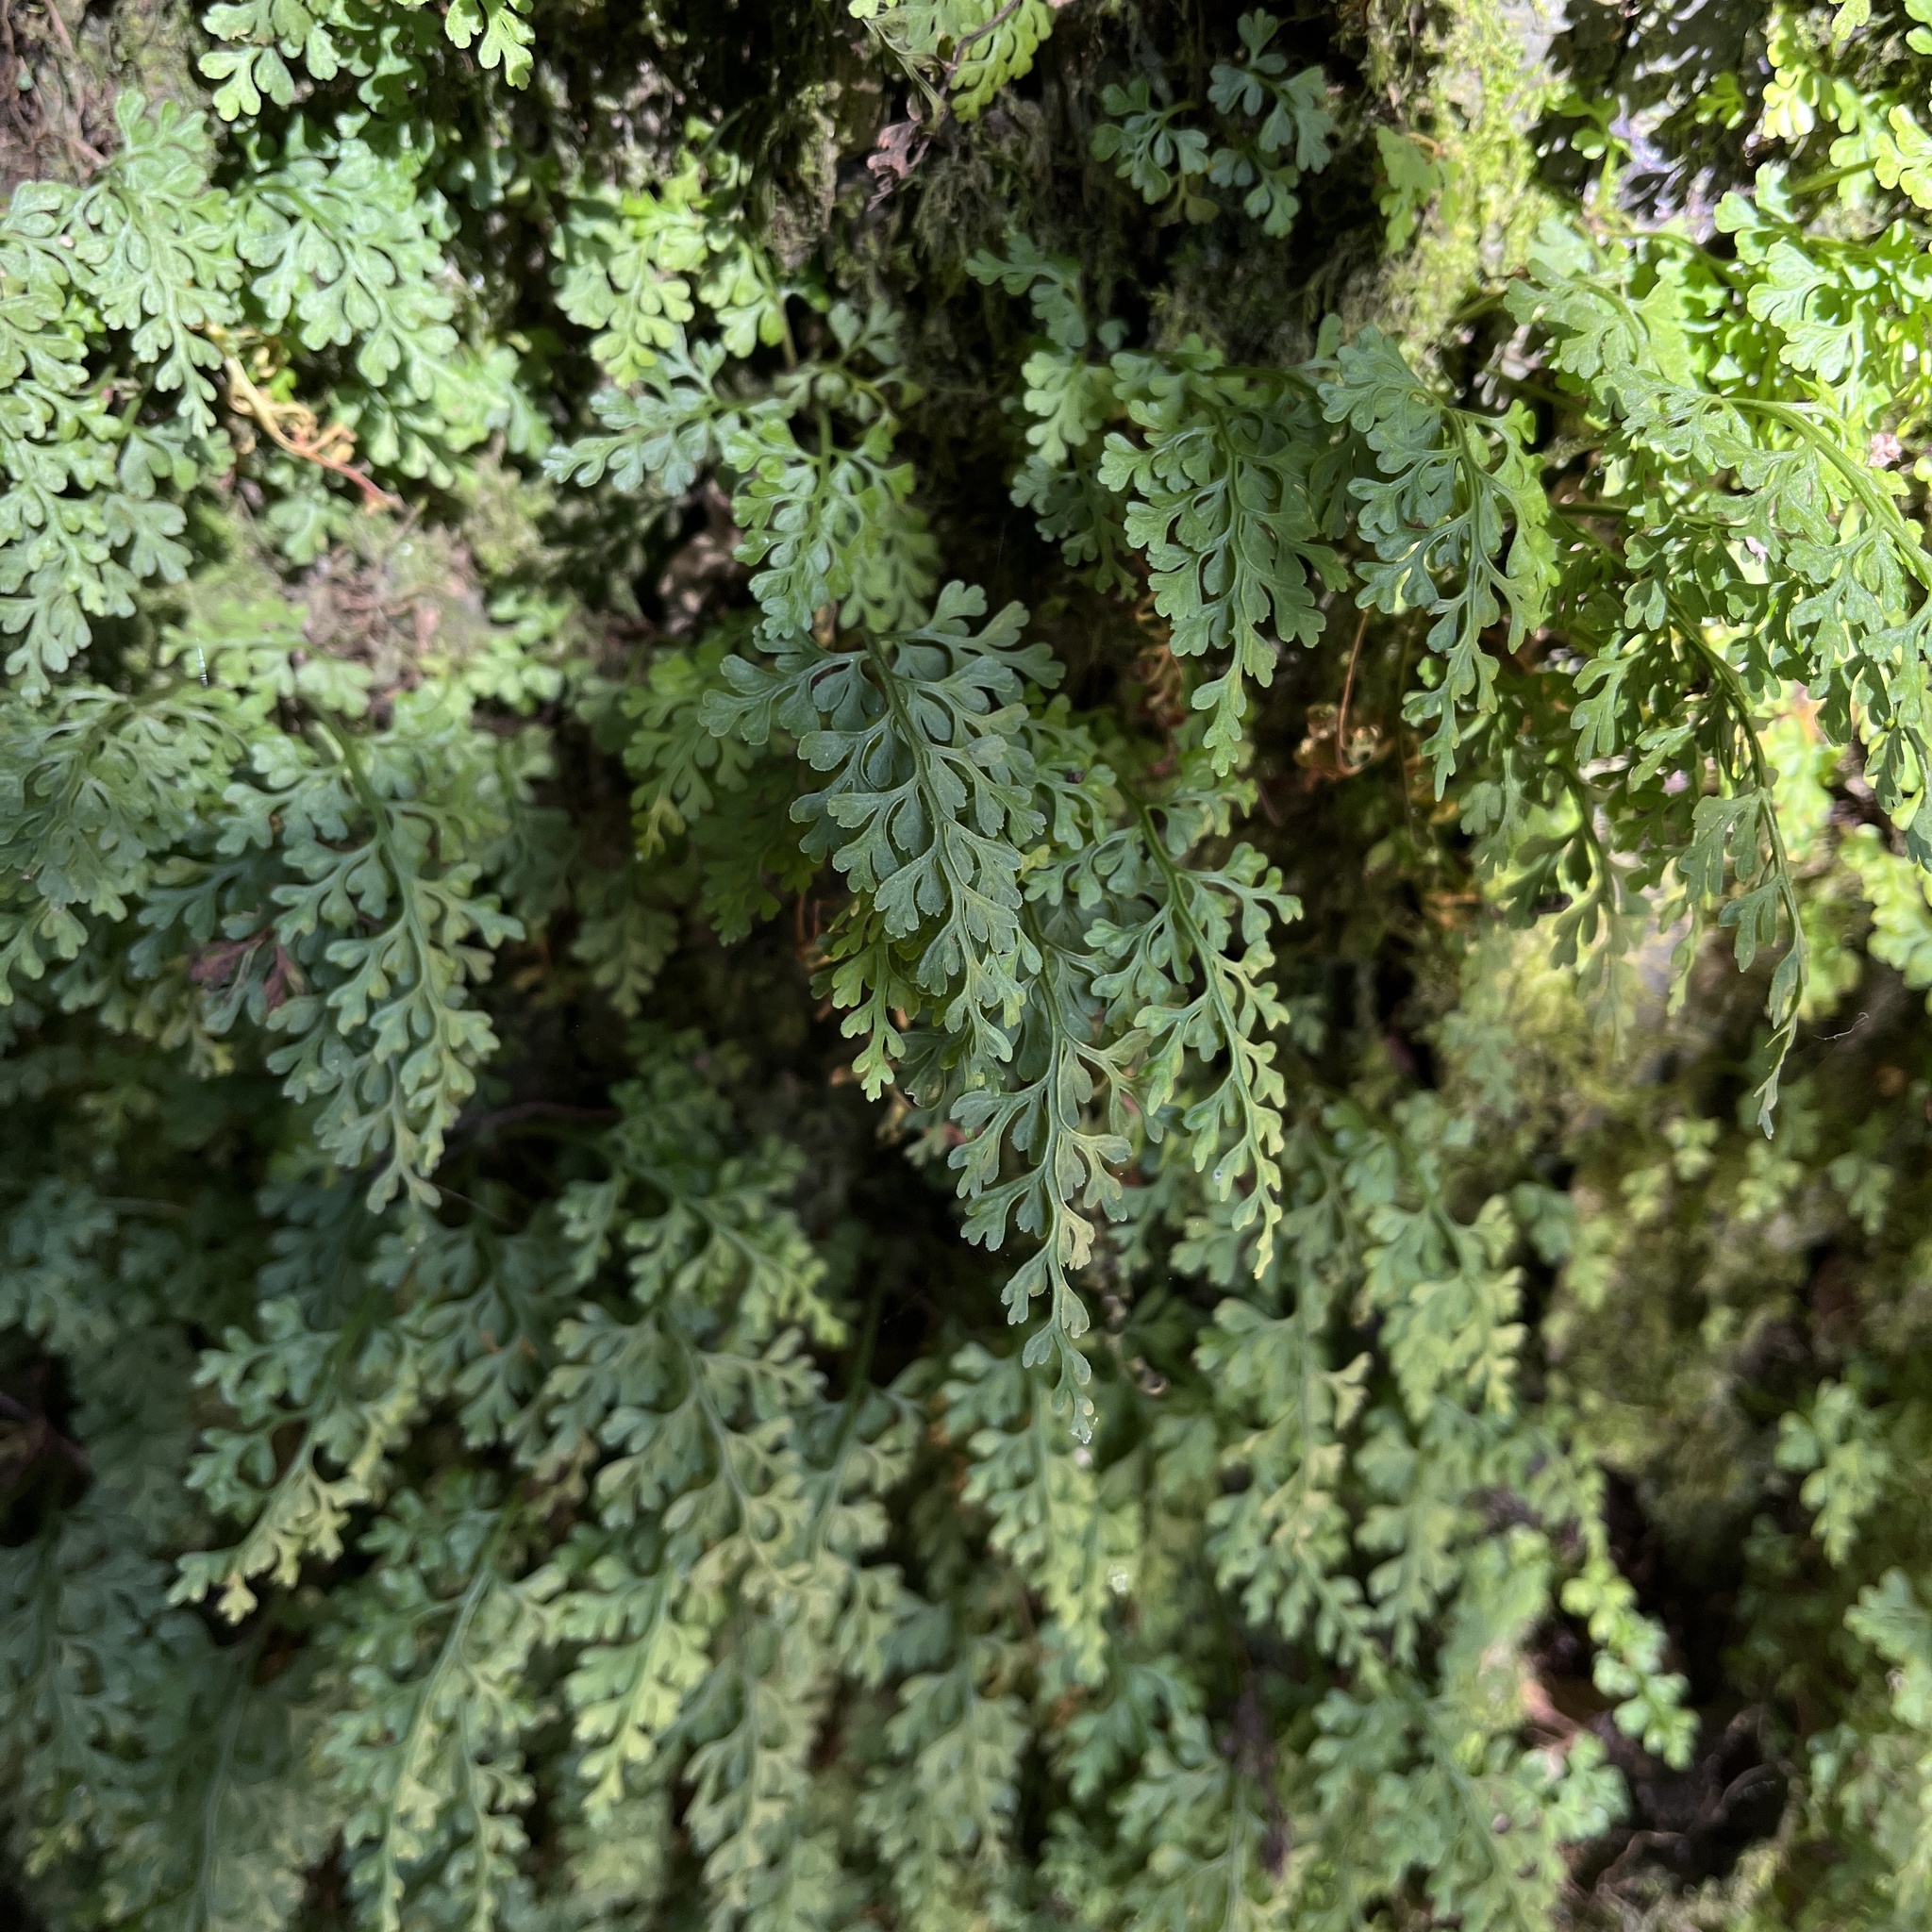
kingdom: Plantae
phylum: Tracheophyta
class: Polypodiopsida
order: Polypodiales
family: Aspleniaceae
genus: Asplenium
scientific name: Asplenium dareoides
